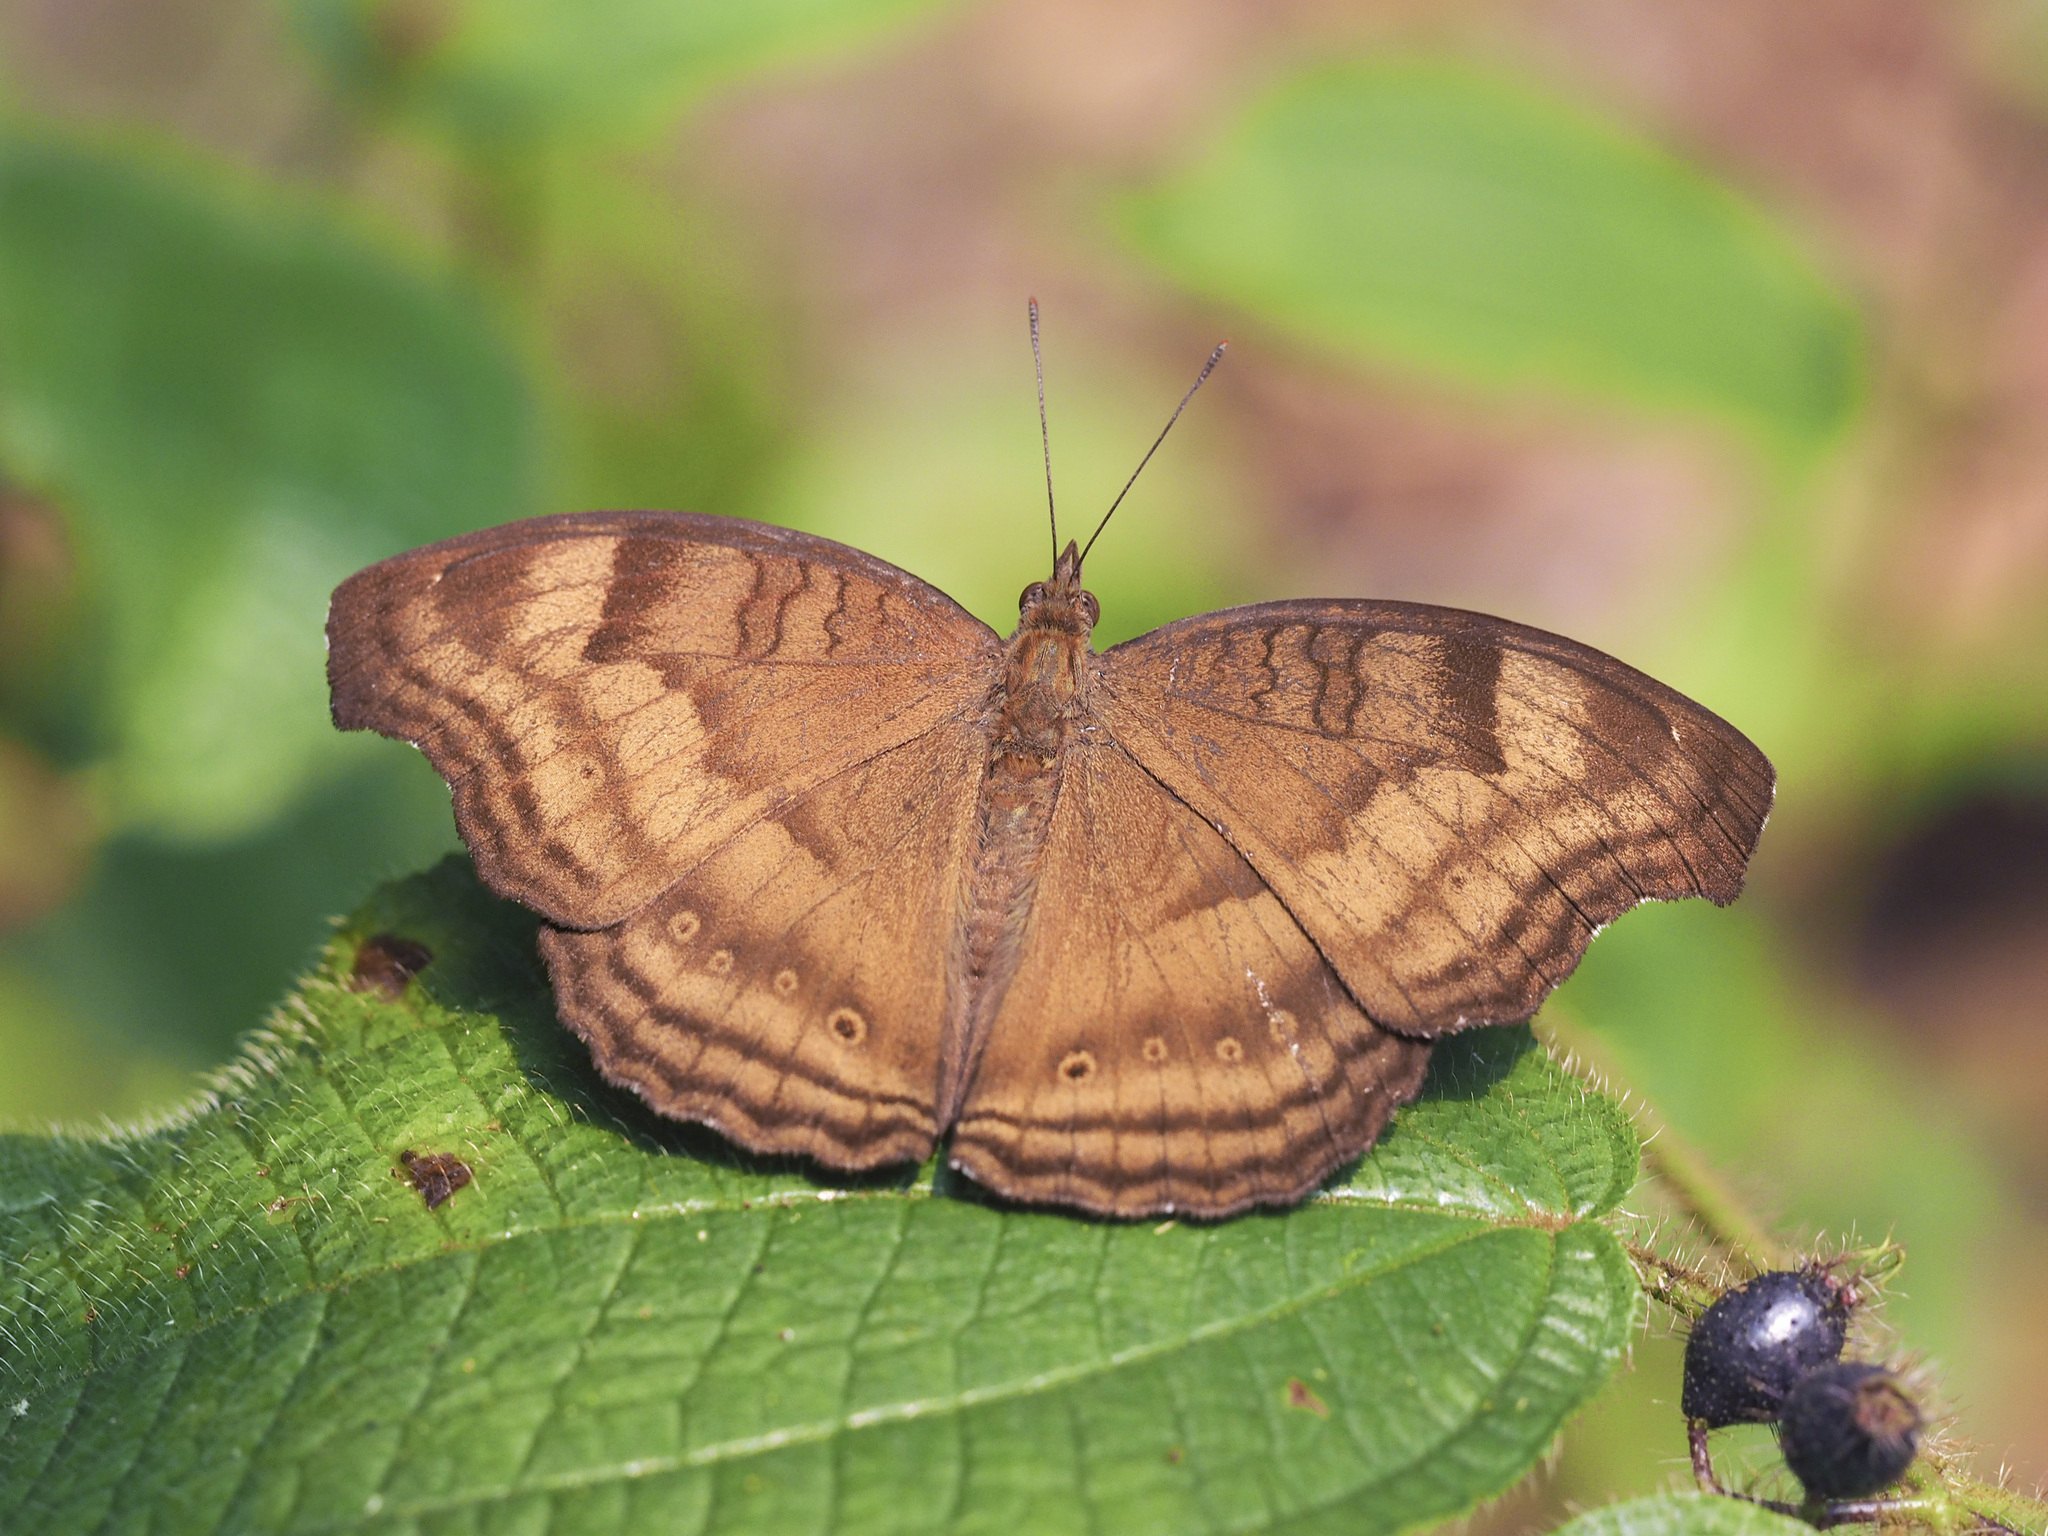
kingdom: Animalia
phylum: Arthropoda
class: Insecta
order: Lepidoptera
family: Nymphalidae
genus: Junonia
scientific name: Junonia iphita
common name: Chocolate pansy
